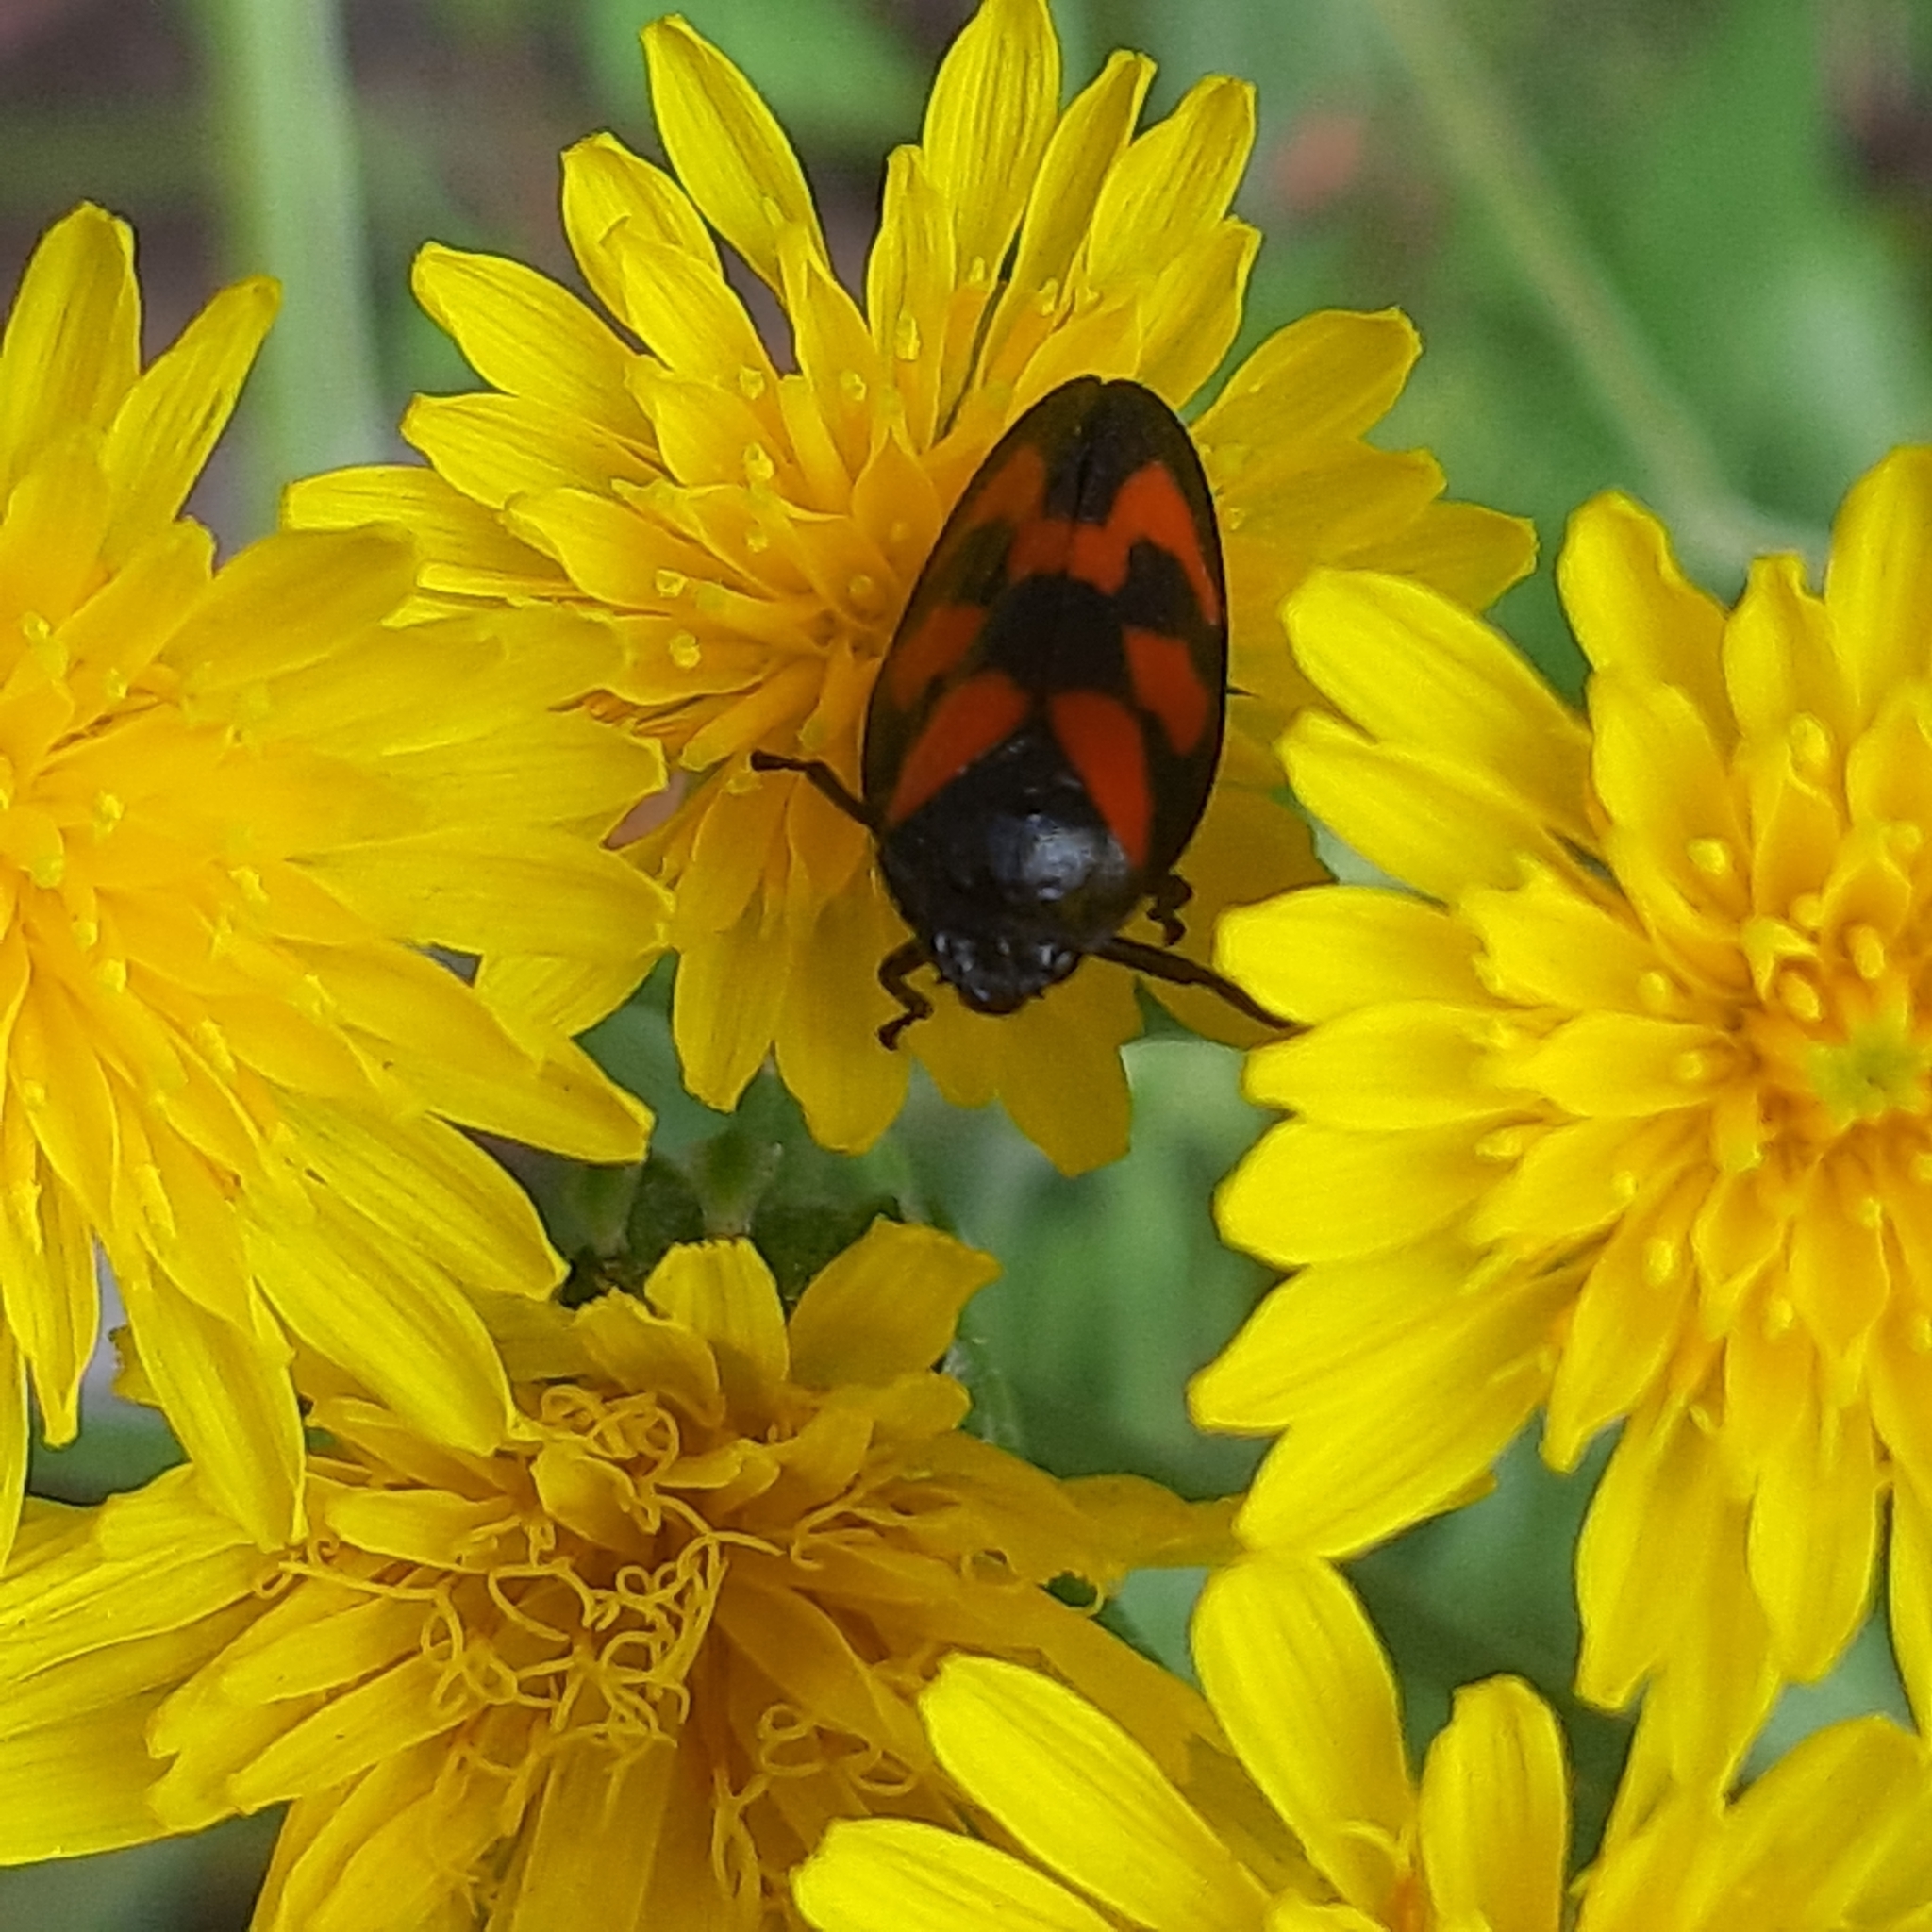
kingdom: Animalia
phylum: Arthropoda
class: Insecta
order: Hemiptera
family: Cercopidae
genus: Cercopis
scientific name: Cercopis vulnerata
